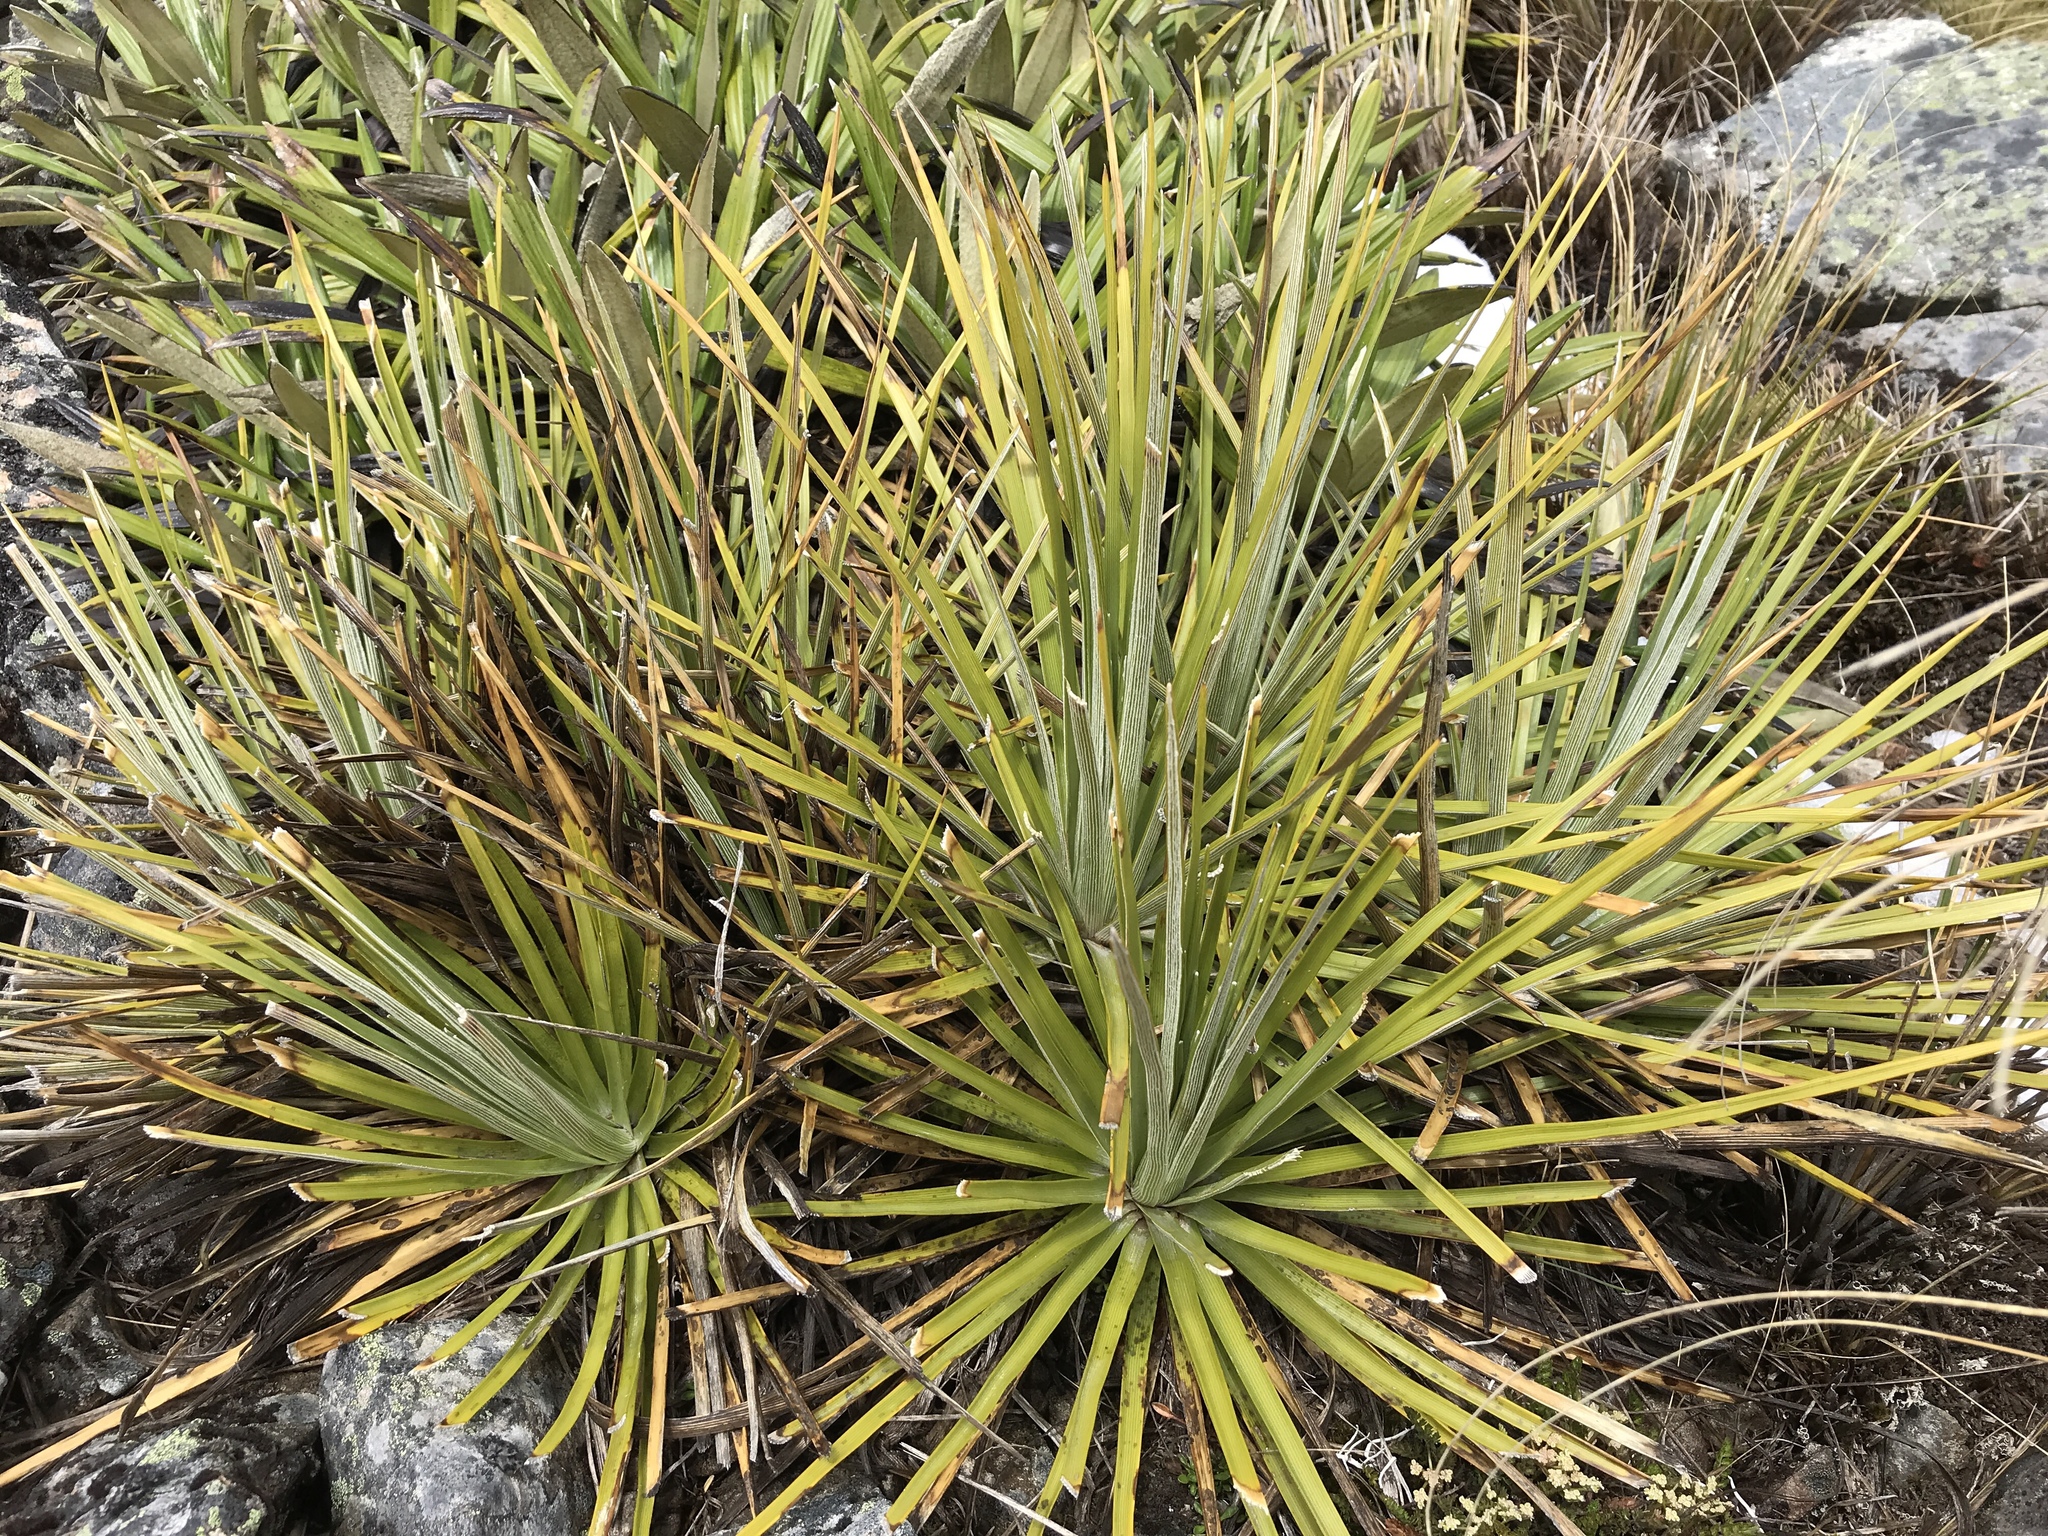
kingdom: Plantae
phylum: Tracheophyta
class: Magnoliopsida
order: Asterales
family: Asteraceae
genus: Celmisia
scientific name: Celmisia lyallii
